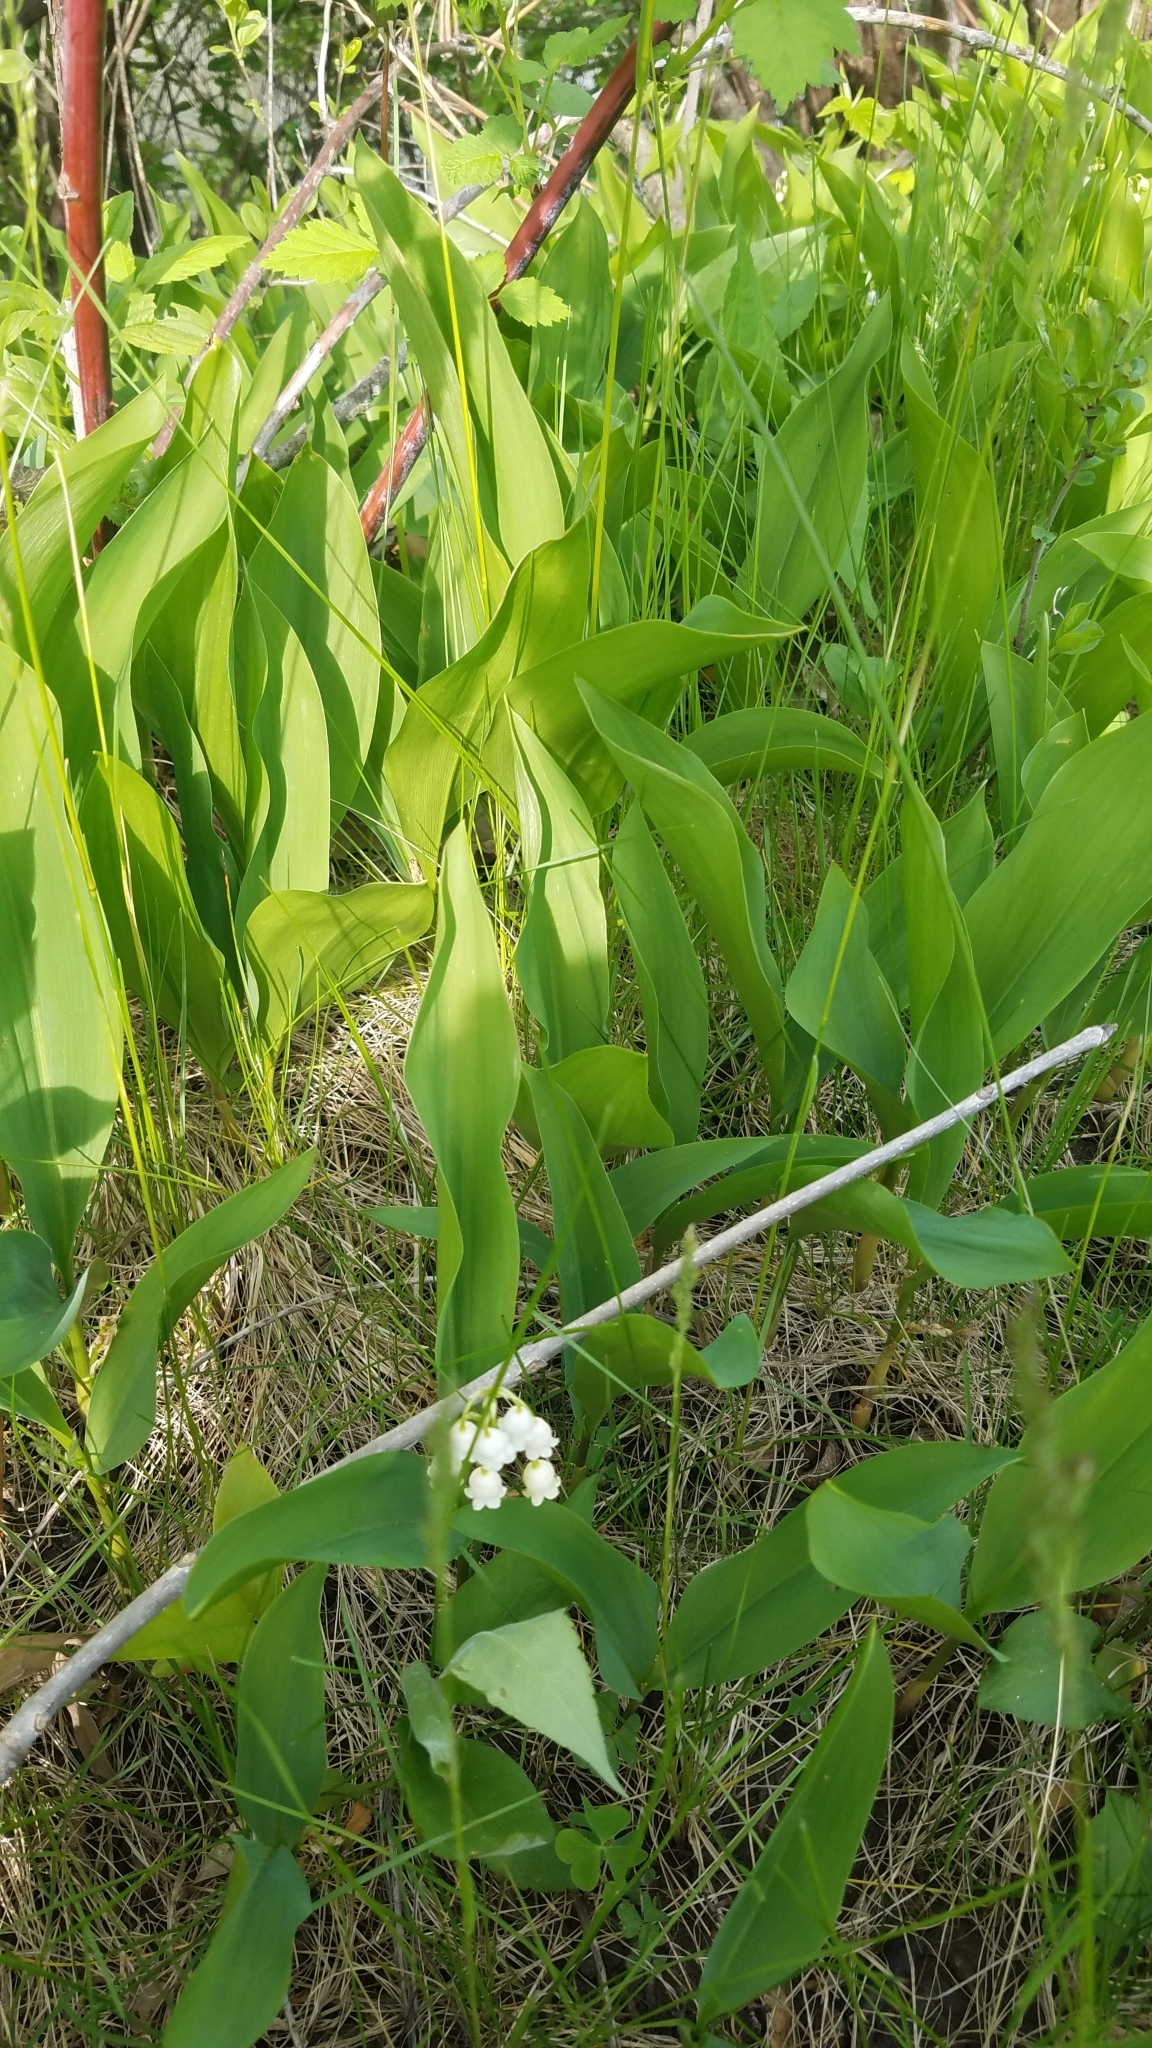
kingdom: Plantae
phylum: Tracheophyta
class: Liliopsida
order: Asparagales
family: Asparagaceae
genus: Convallaria
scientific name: Convallaria majalis
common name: Lily-of-the-valley
